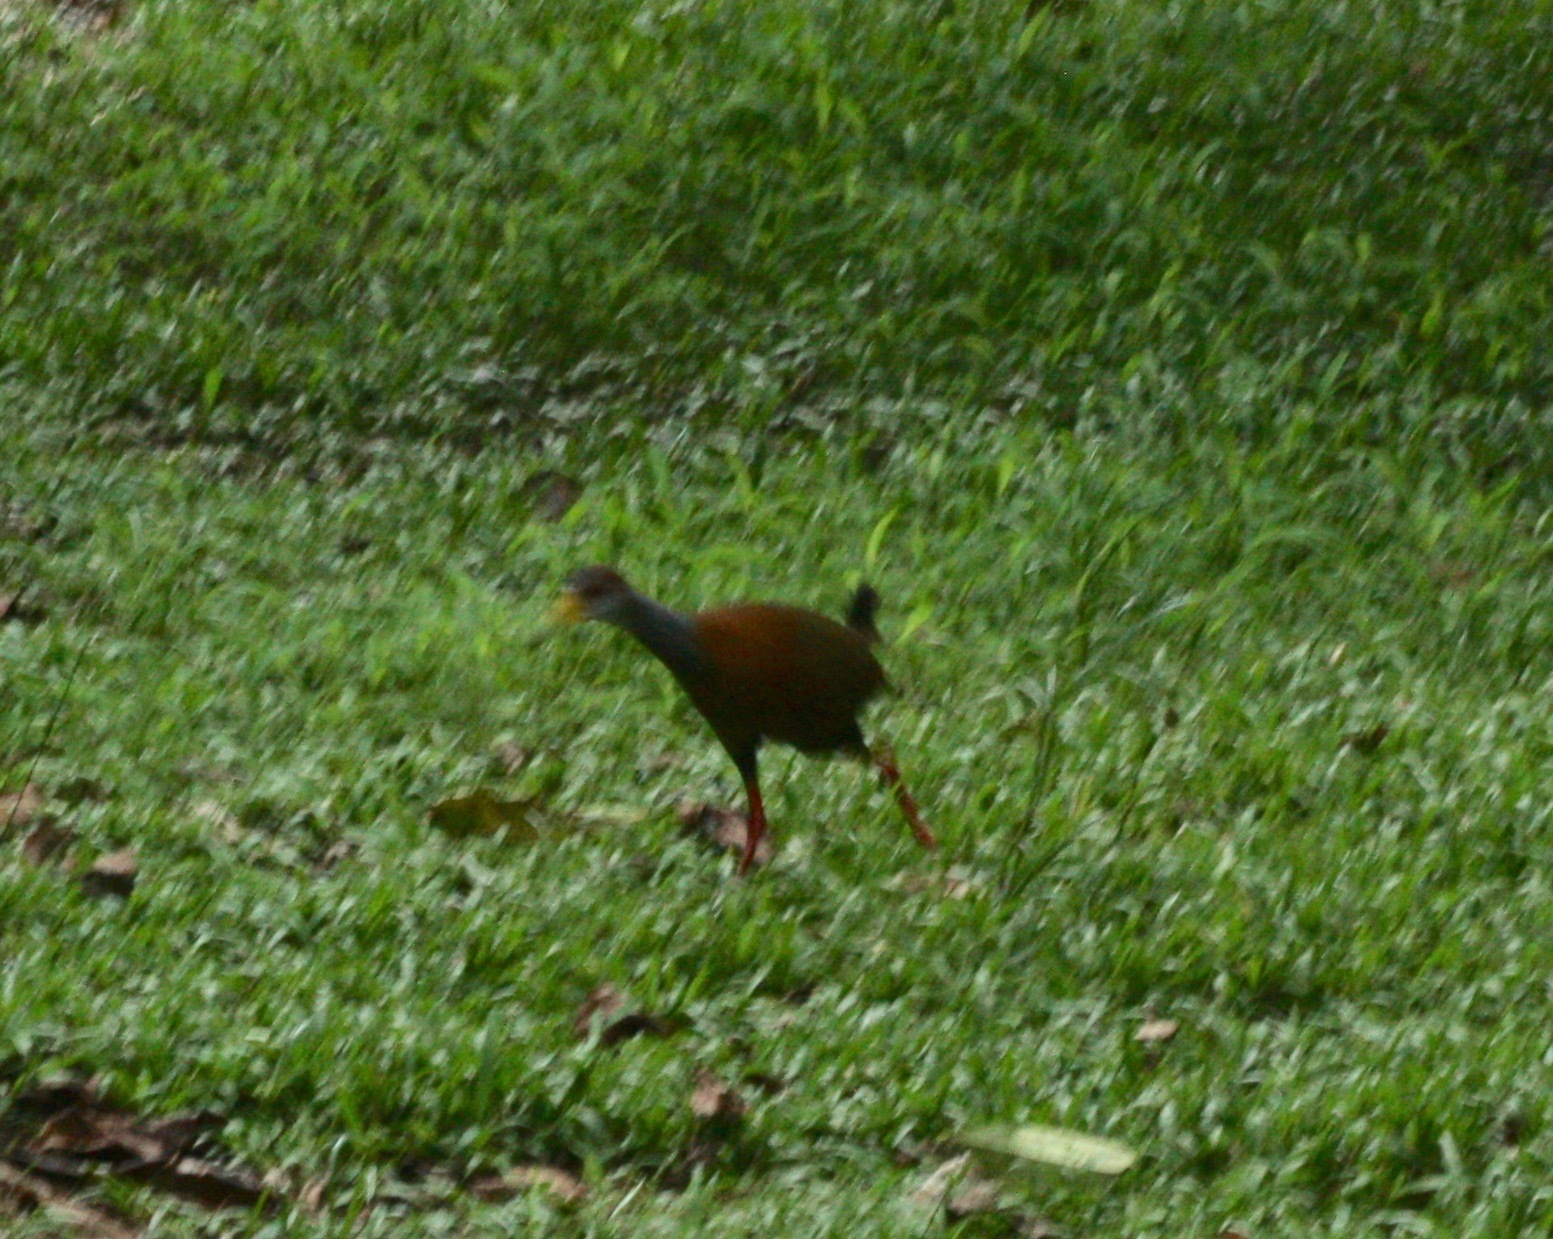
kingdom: Animalia
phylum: Chordata
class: Aves
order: Gruiformes
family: Rallidae
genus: Aramides
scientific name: Aramides albiventris
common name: Russet-naped wood-rail
